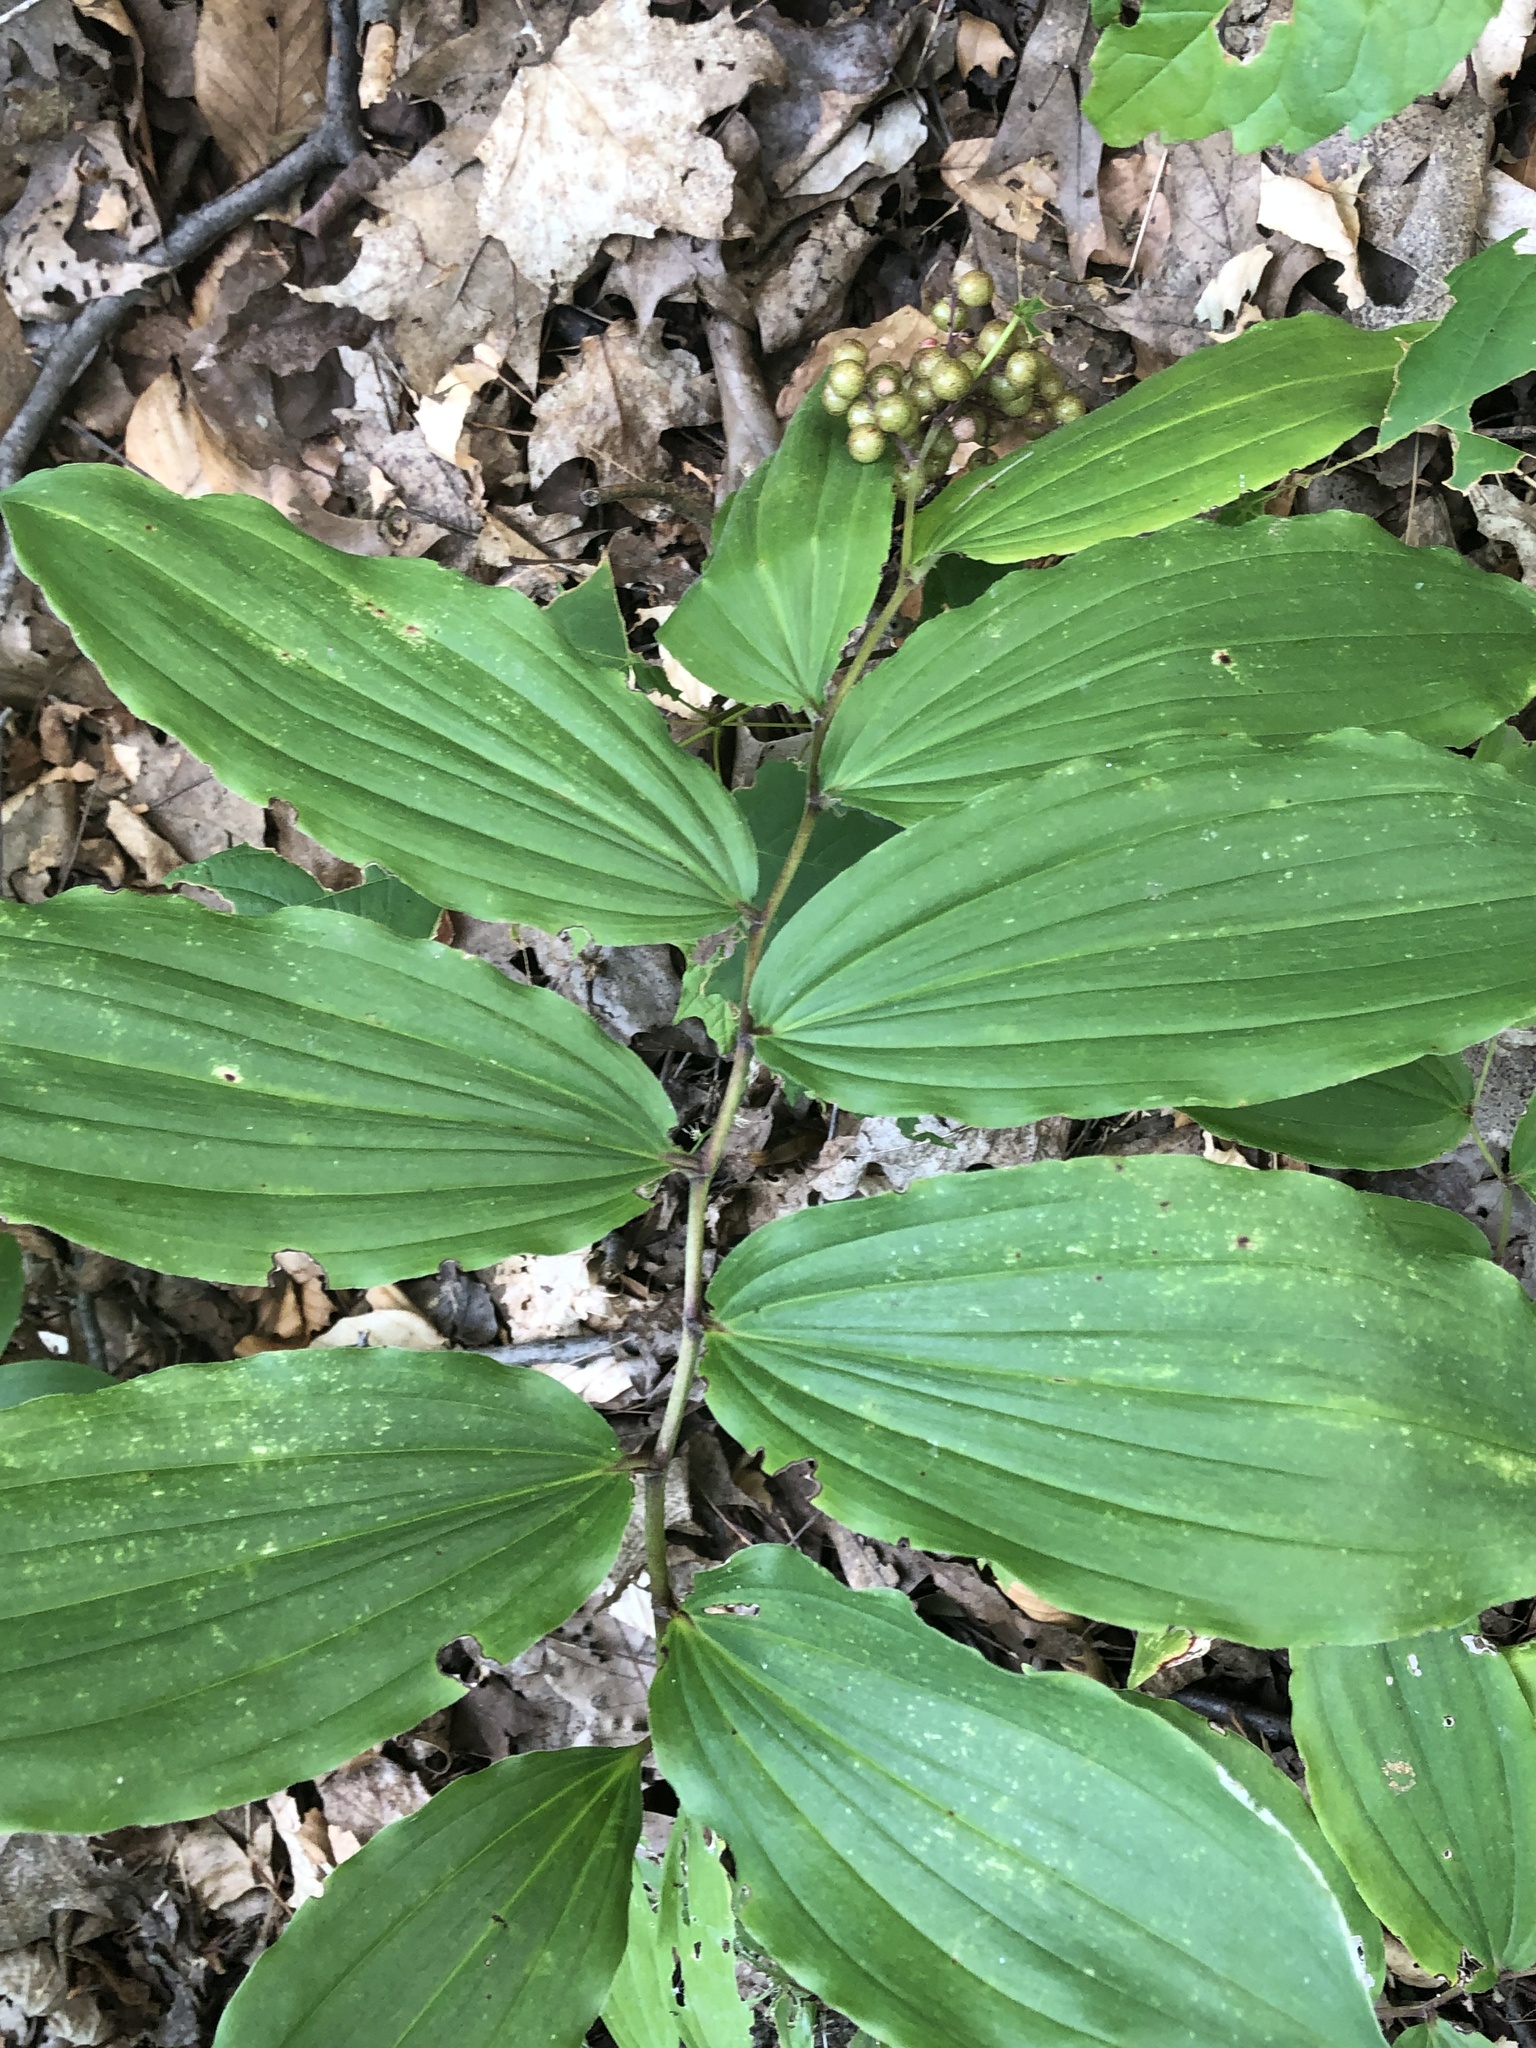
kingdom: Plantae
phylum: Tracheophyta
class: Liliopsida
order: Asparagales
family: Asparagaceae
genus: Maianthemum
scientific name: Maianthemum racemosum
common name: False spikenard
